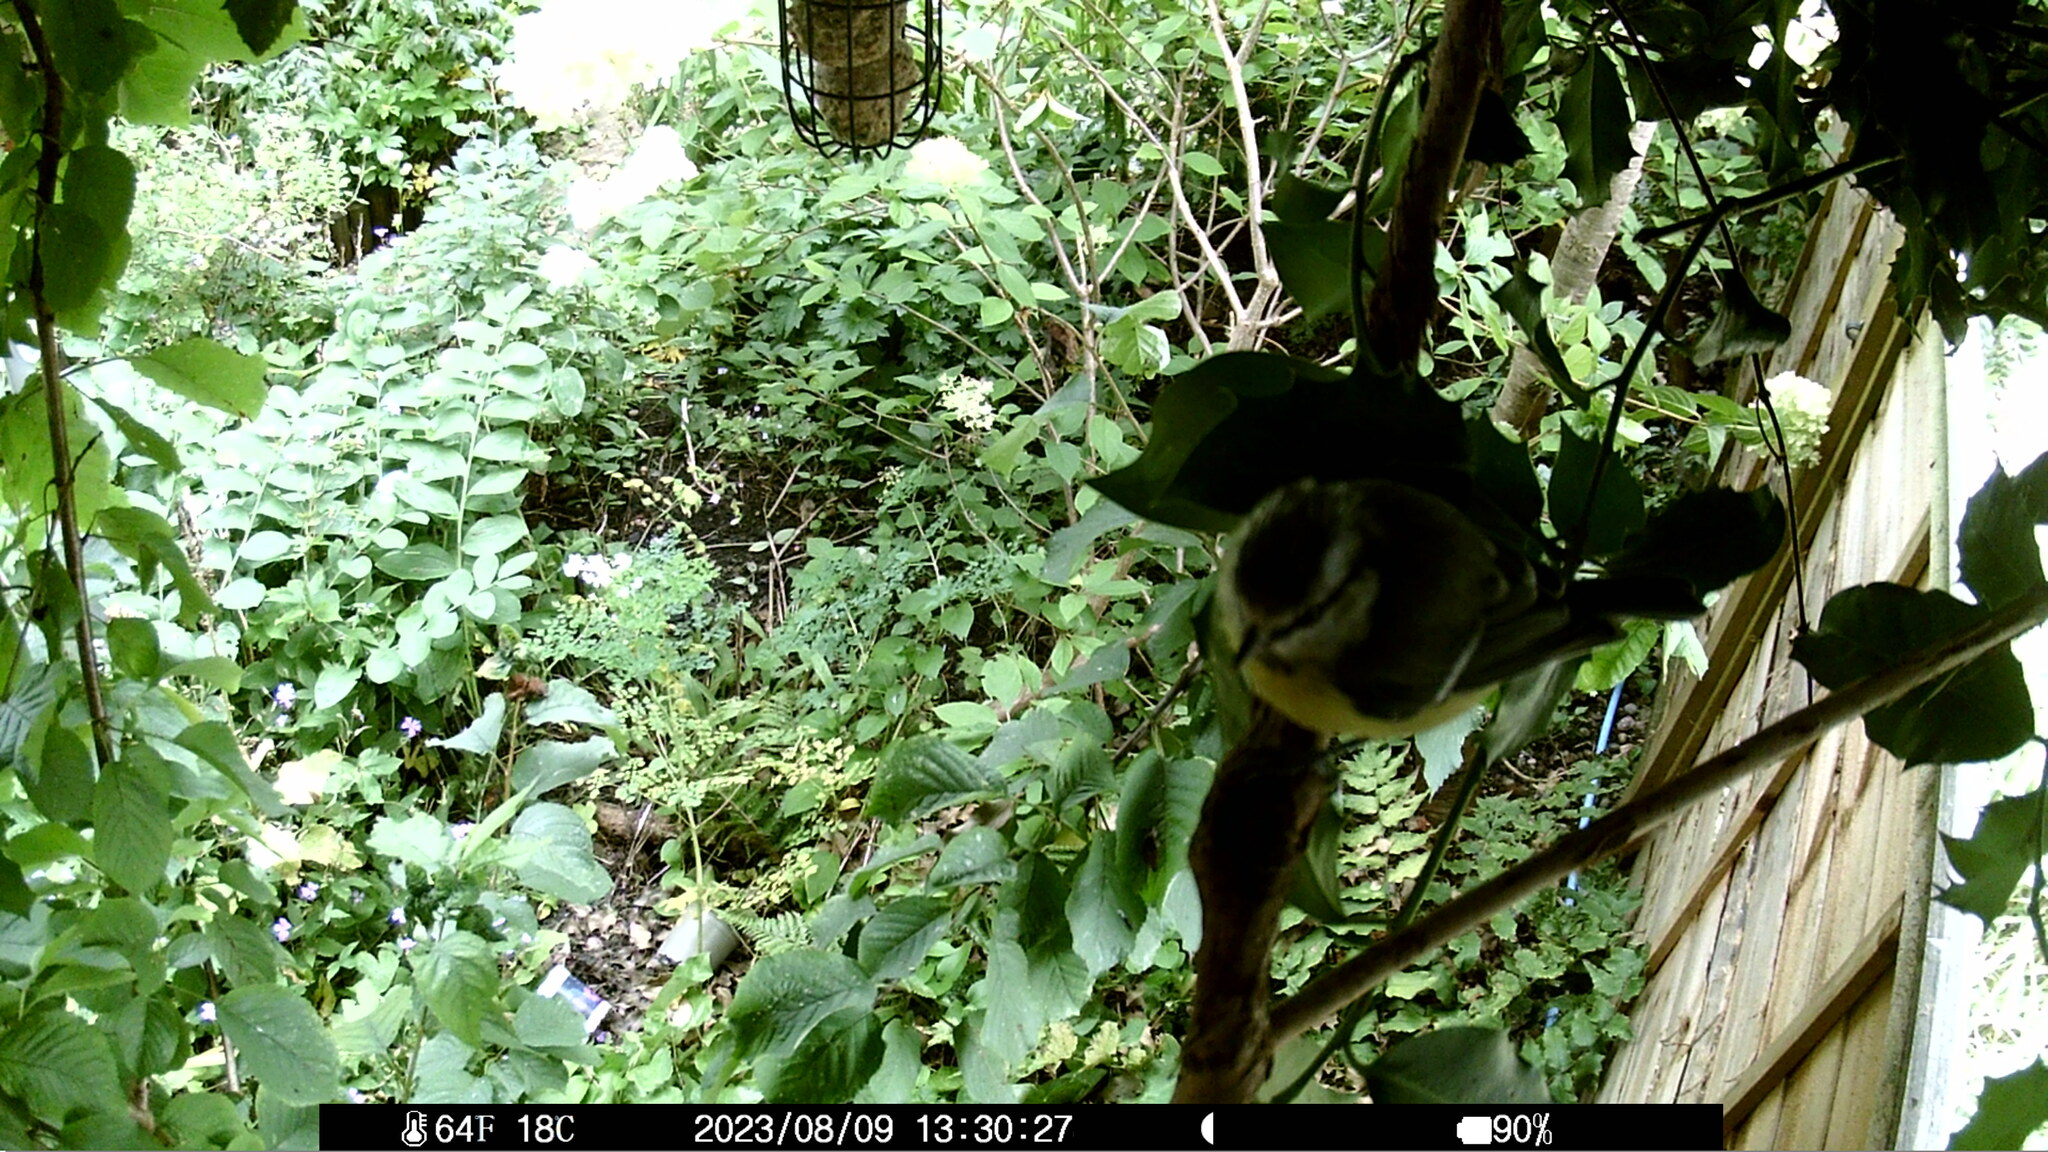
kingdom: Animalia
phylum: Chordata
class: Aves
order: Passeriformes
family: Paridae
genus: Cyanistes
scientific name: Cyanistes caeruleus
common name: Eurasian blue tit
